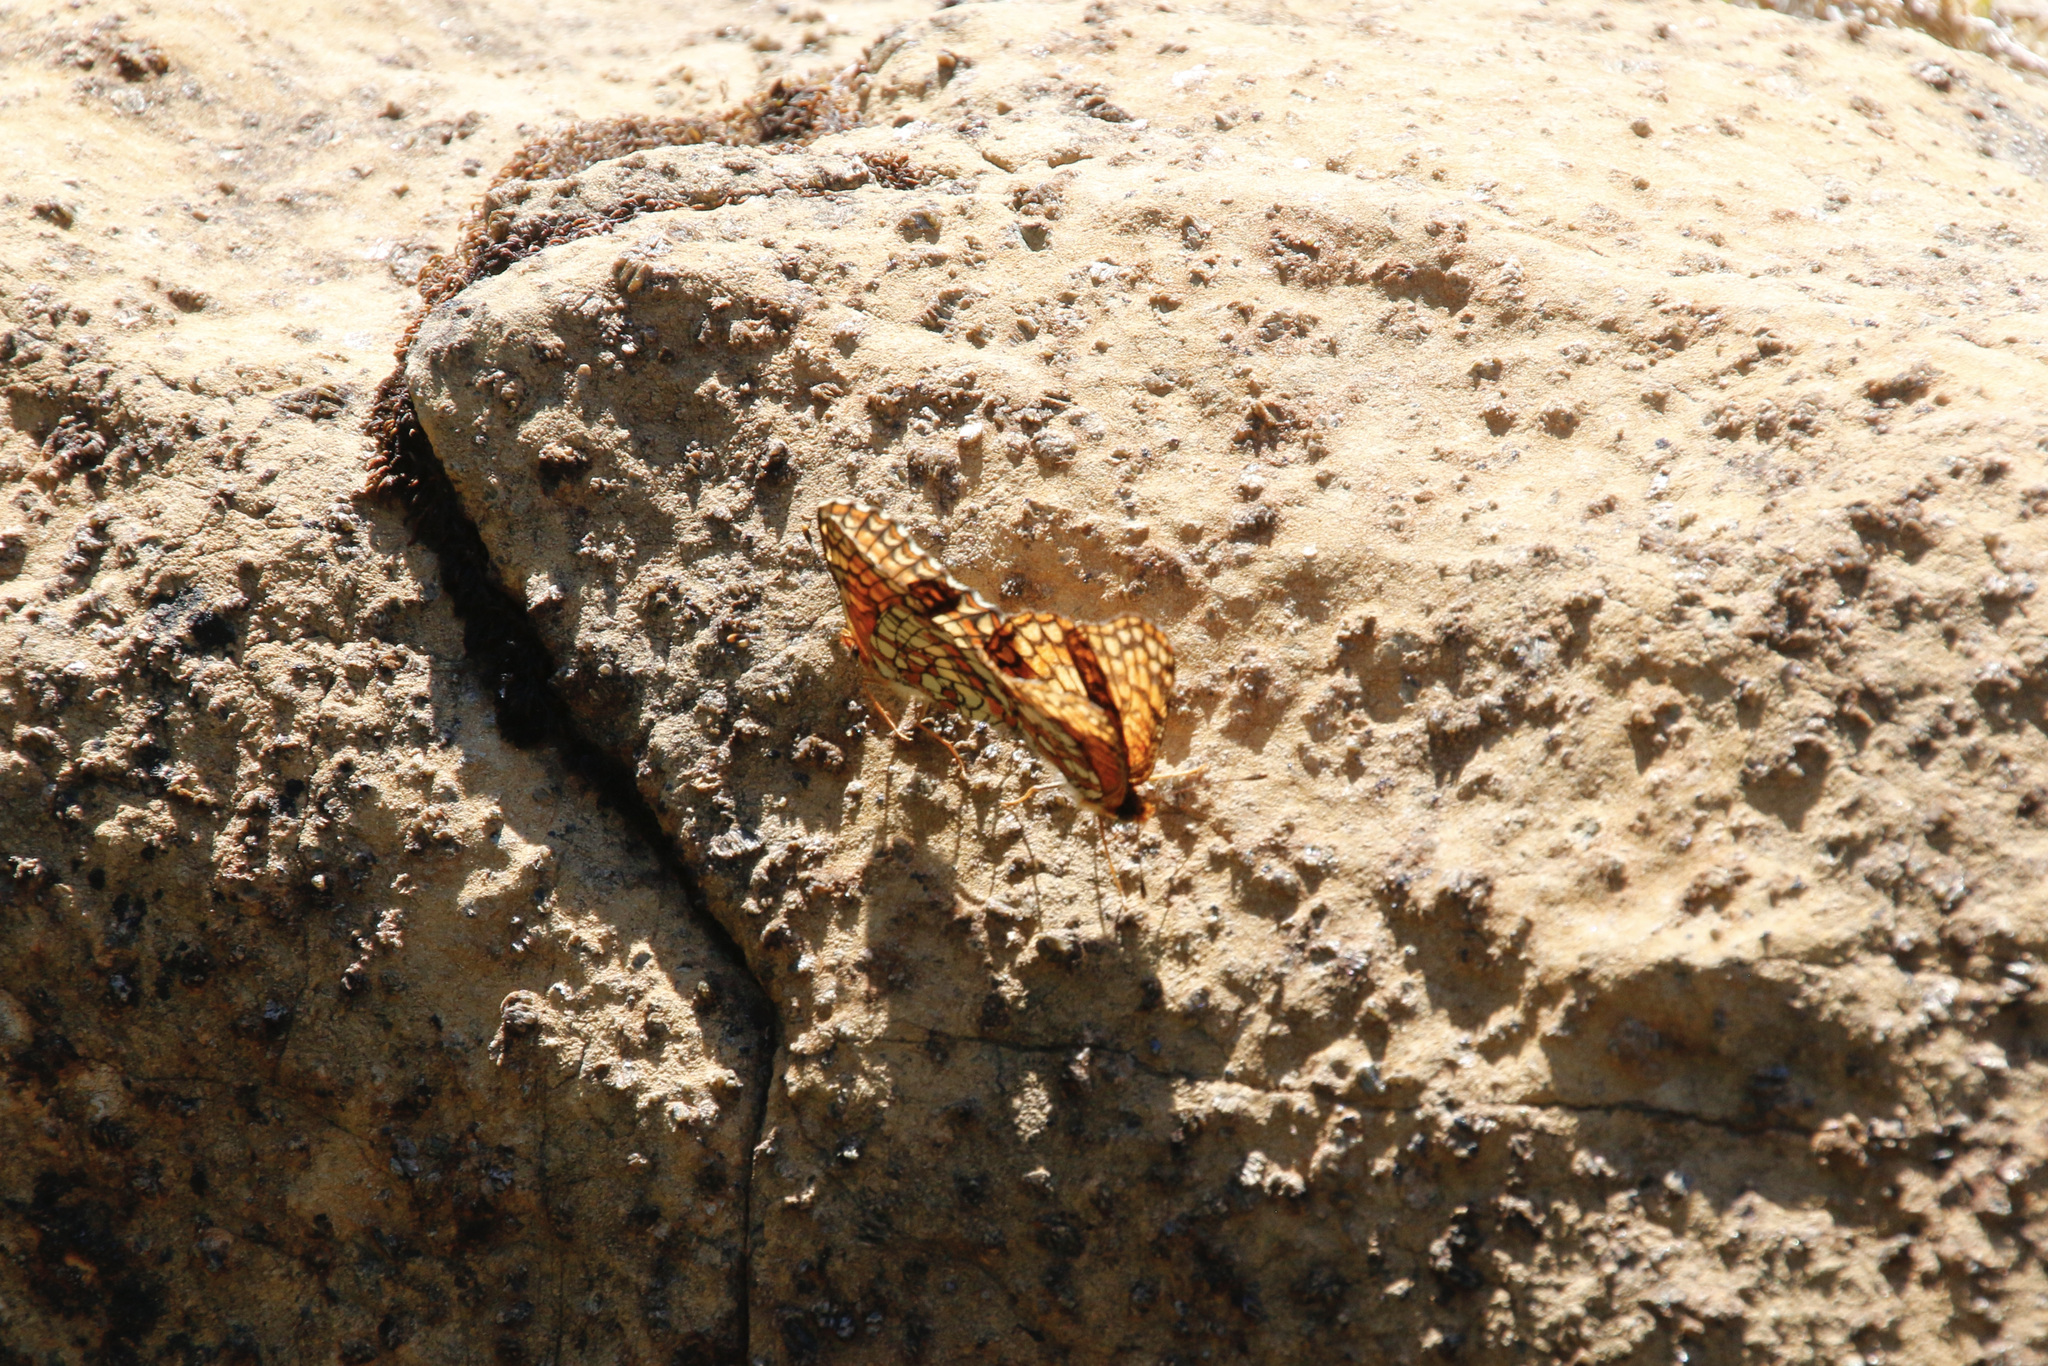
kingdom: Animalia
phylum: Arthropoda
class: Insecta
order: Lepidoptera
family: Nymphalidae
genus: Chlosyne
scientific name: Chlosyne palla
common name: Northern checkerspot
